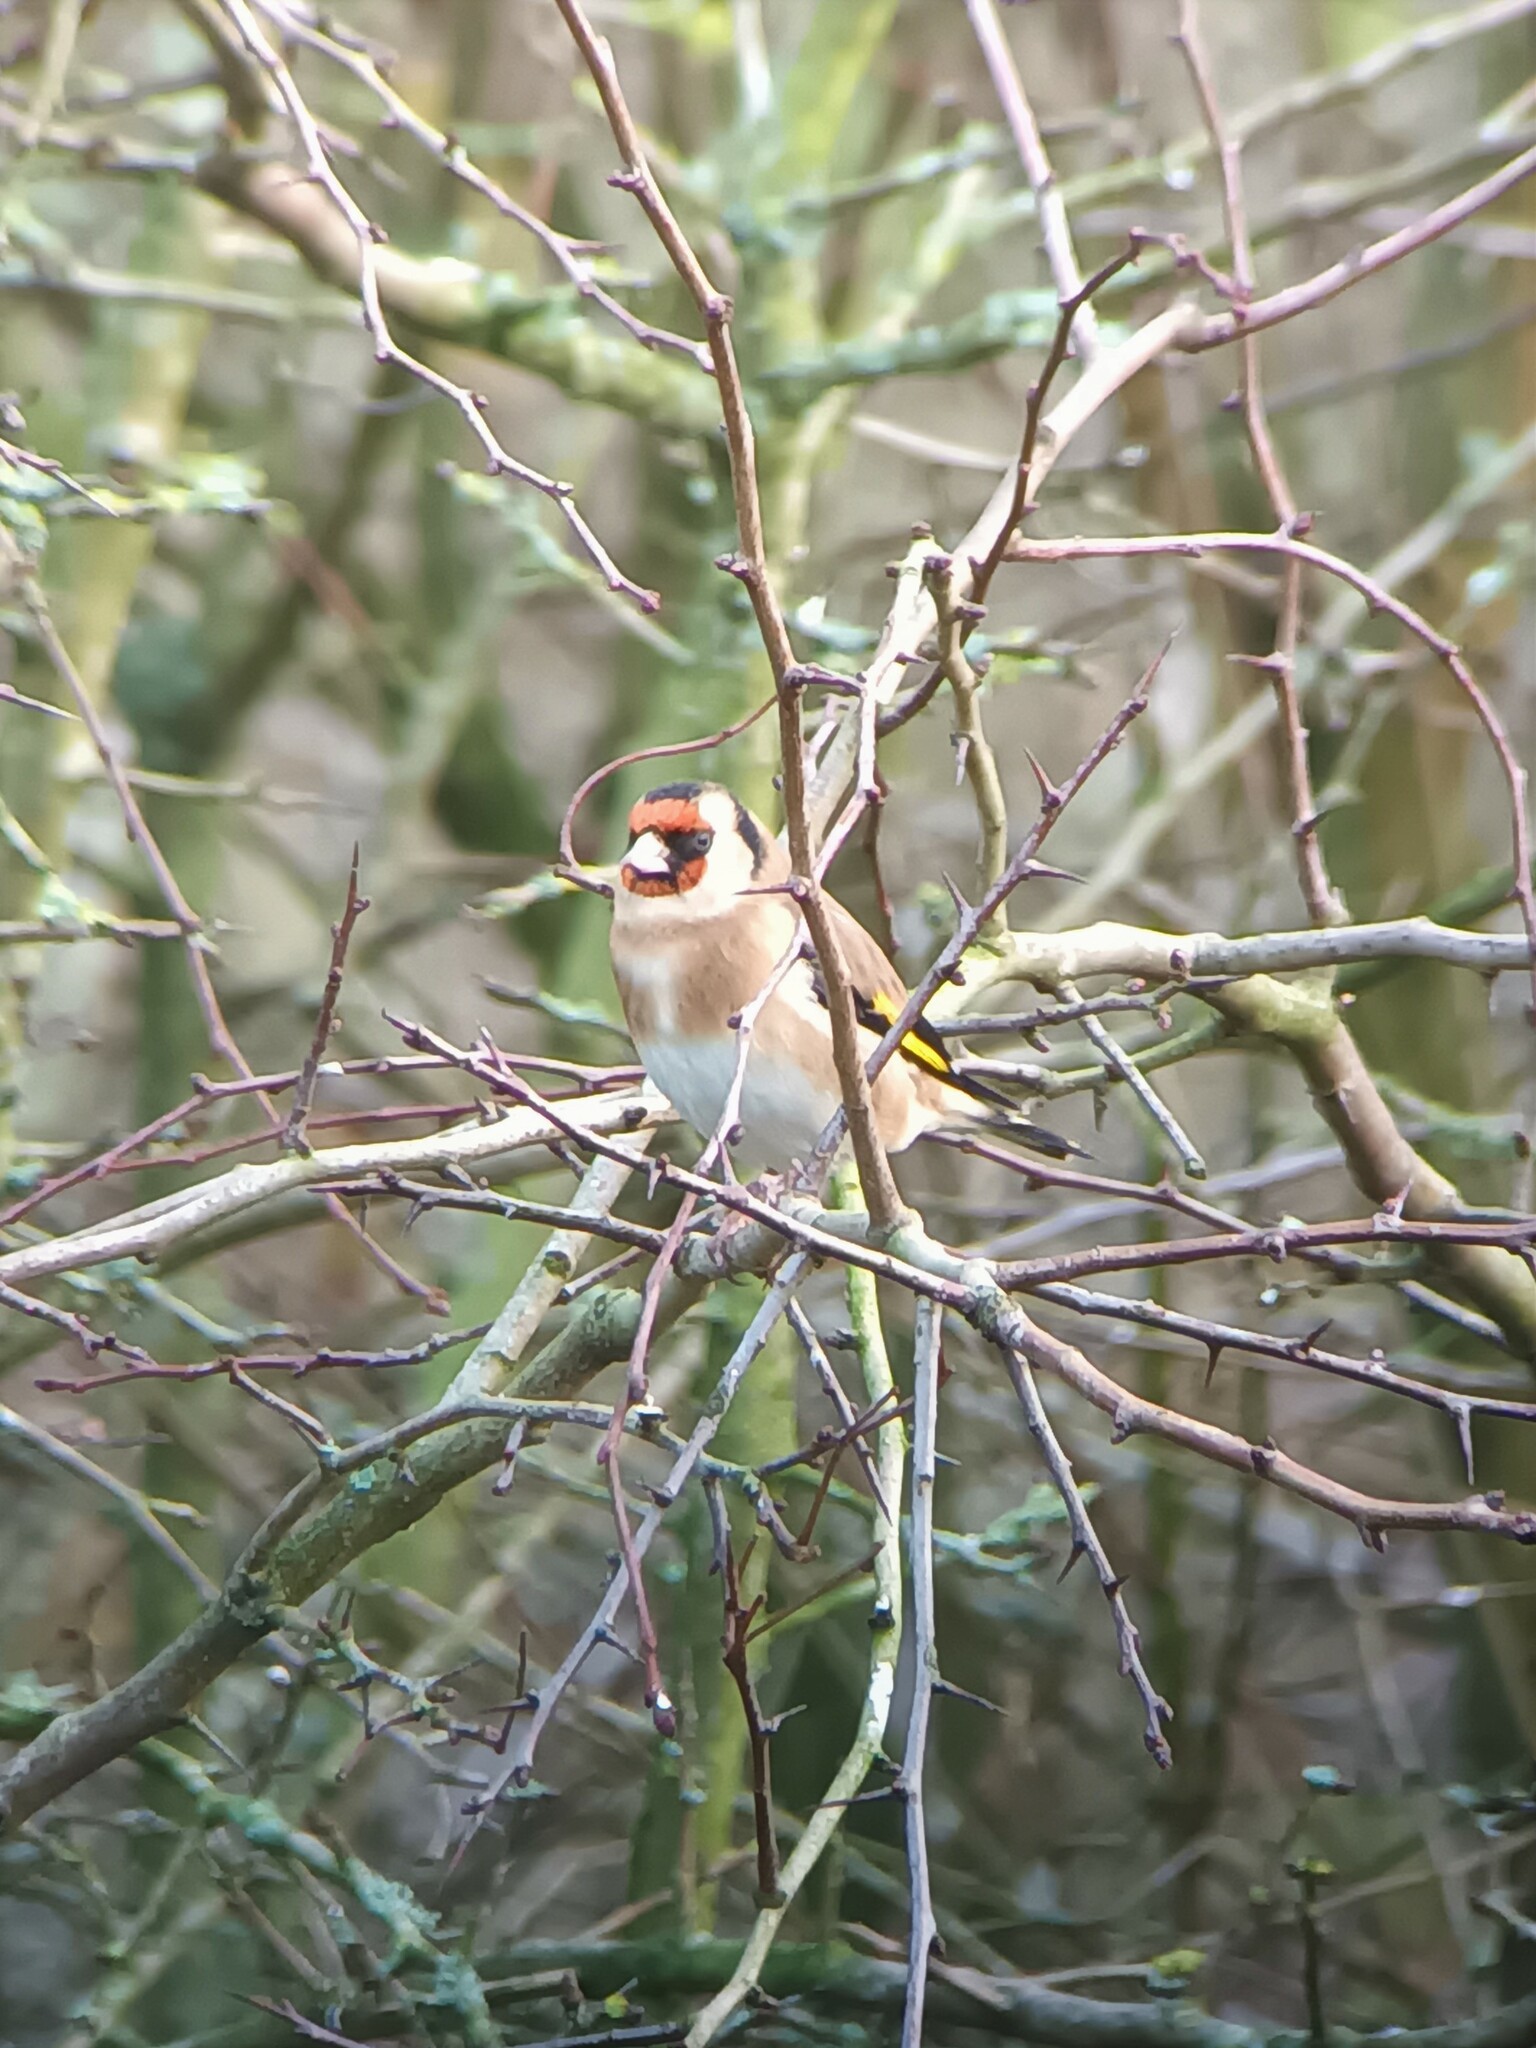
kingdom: Animalia
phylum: Chordata
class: Aves
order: Passeriformes
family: Fringillidae
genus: Carduelis
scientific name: Carduelis carduelis
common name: European goldfinch
